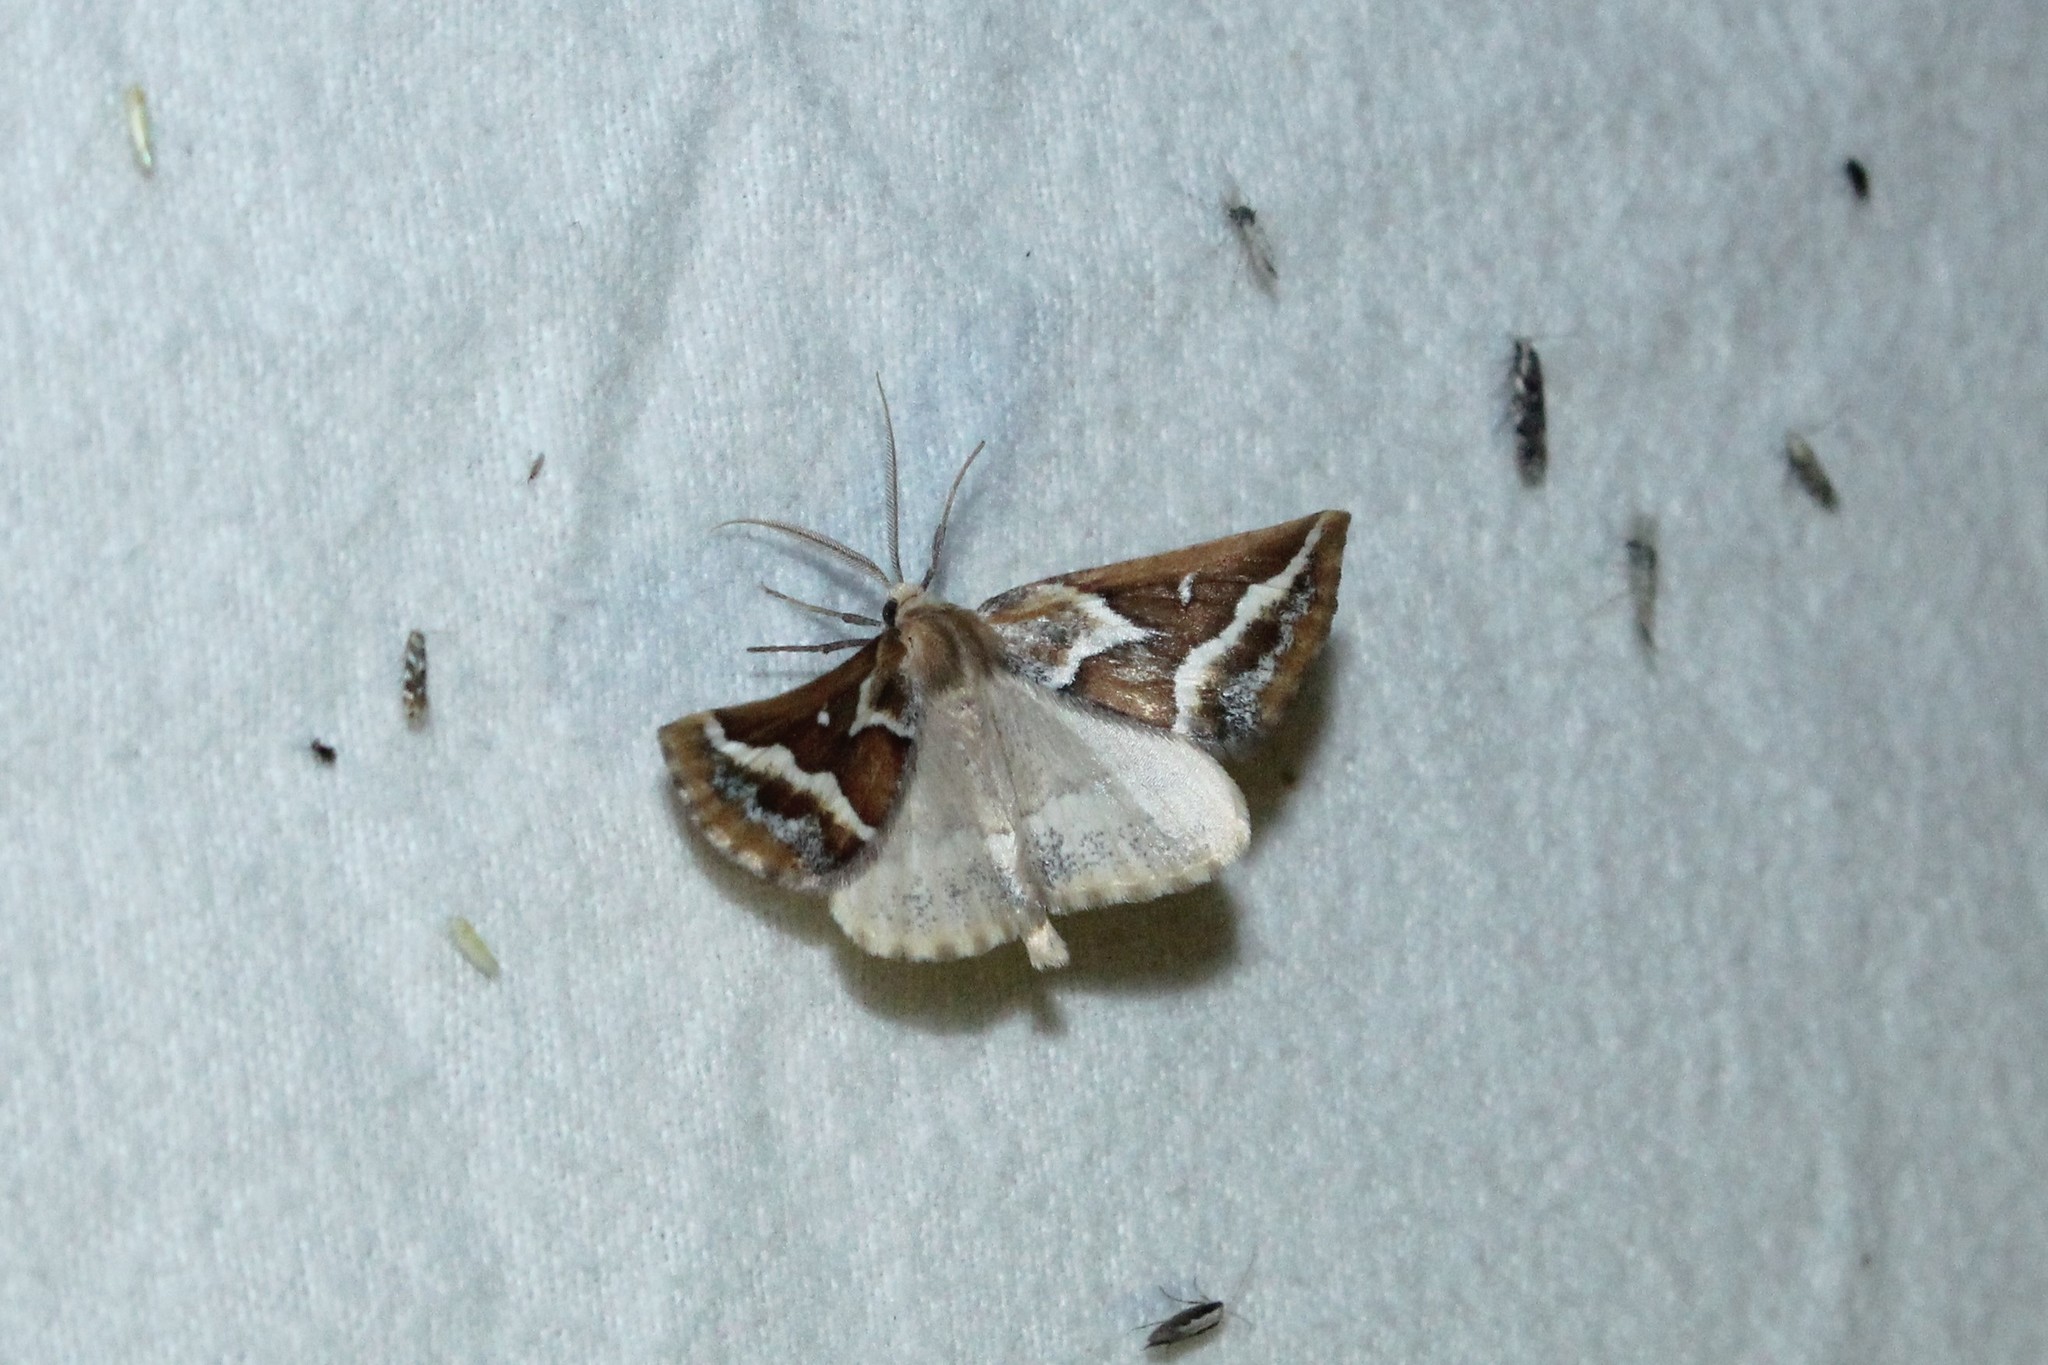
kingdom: Animalia
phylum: Arthropoda
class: Insecta
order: Lepidoptera
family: Geometridae
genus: Caripeta
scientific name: Caripeta angustiorata
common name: Brown pine looper
